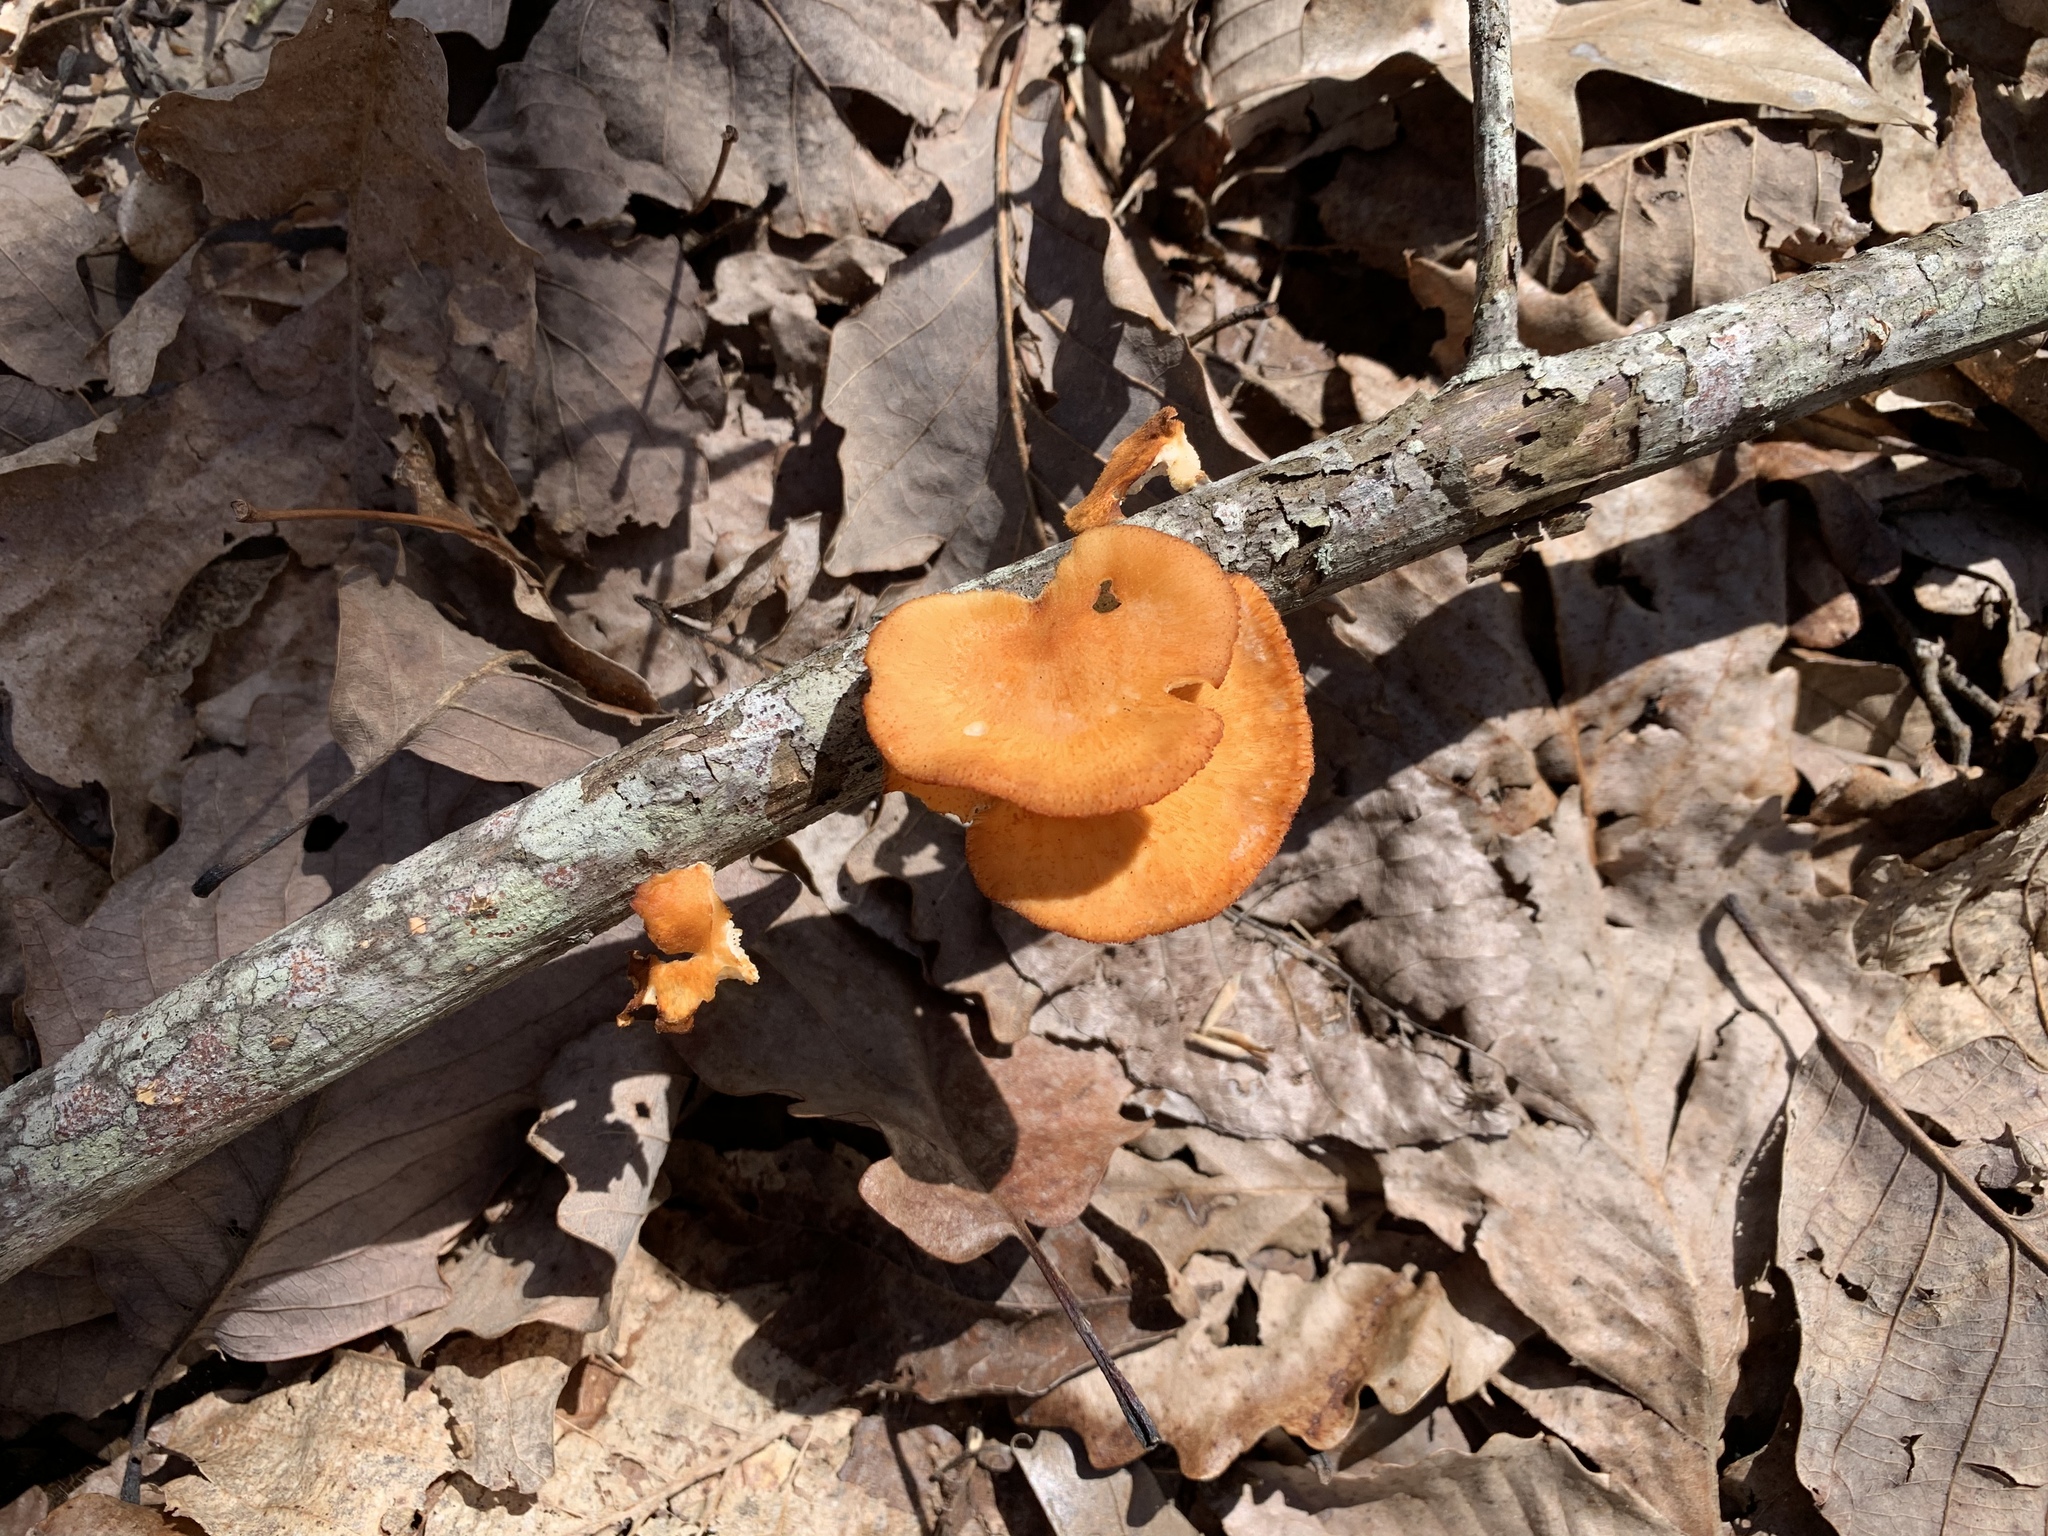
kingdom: Fungi
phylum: Basidiomycota
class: Agaricomycetes
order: Polyporales
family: Polyporaceae
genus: Neofavolus
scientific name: Neofavolus alveolaris
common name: Hexagonal-pored polypore
